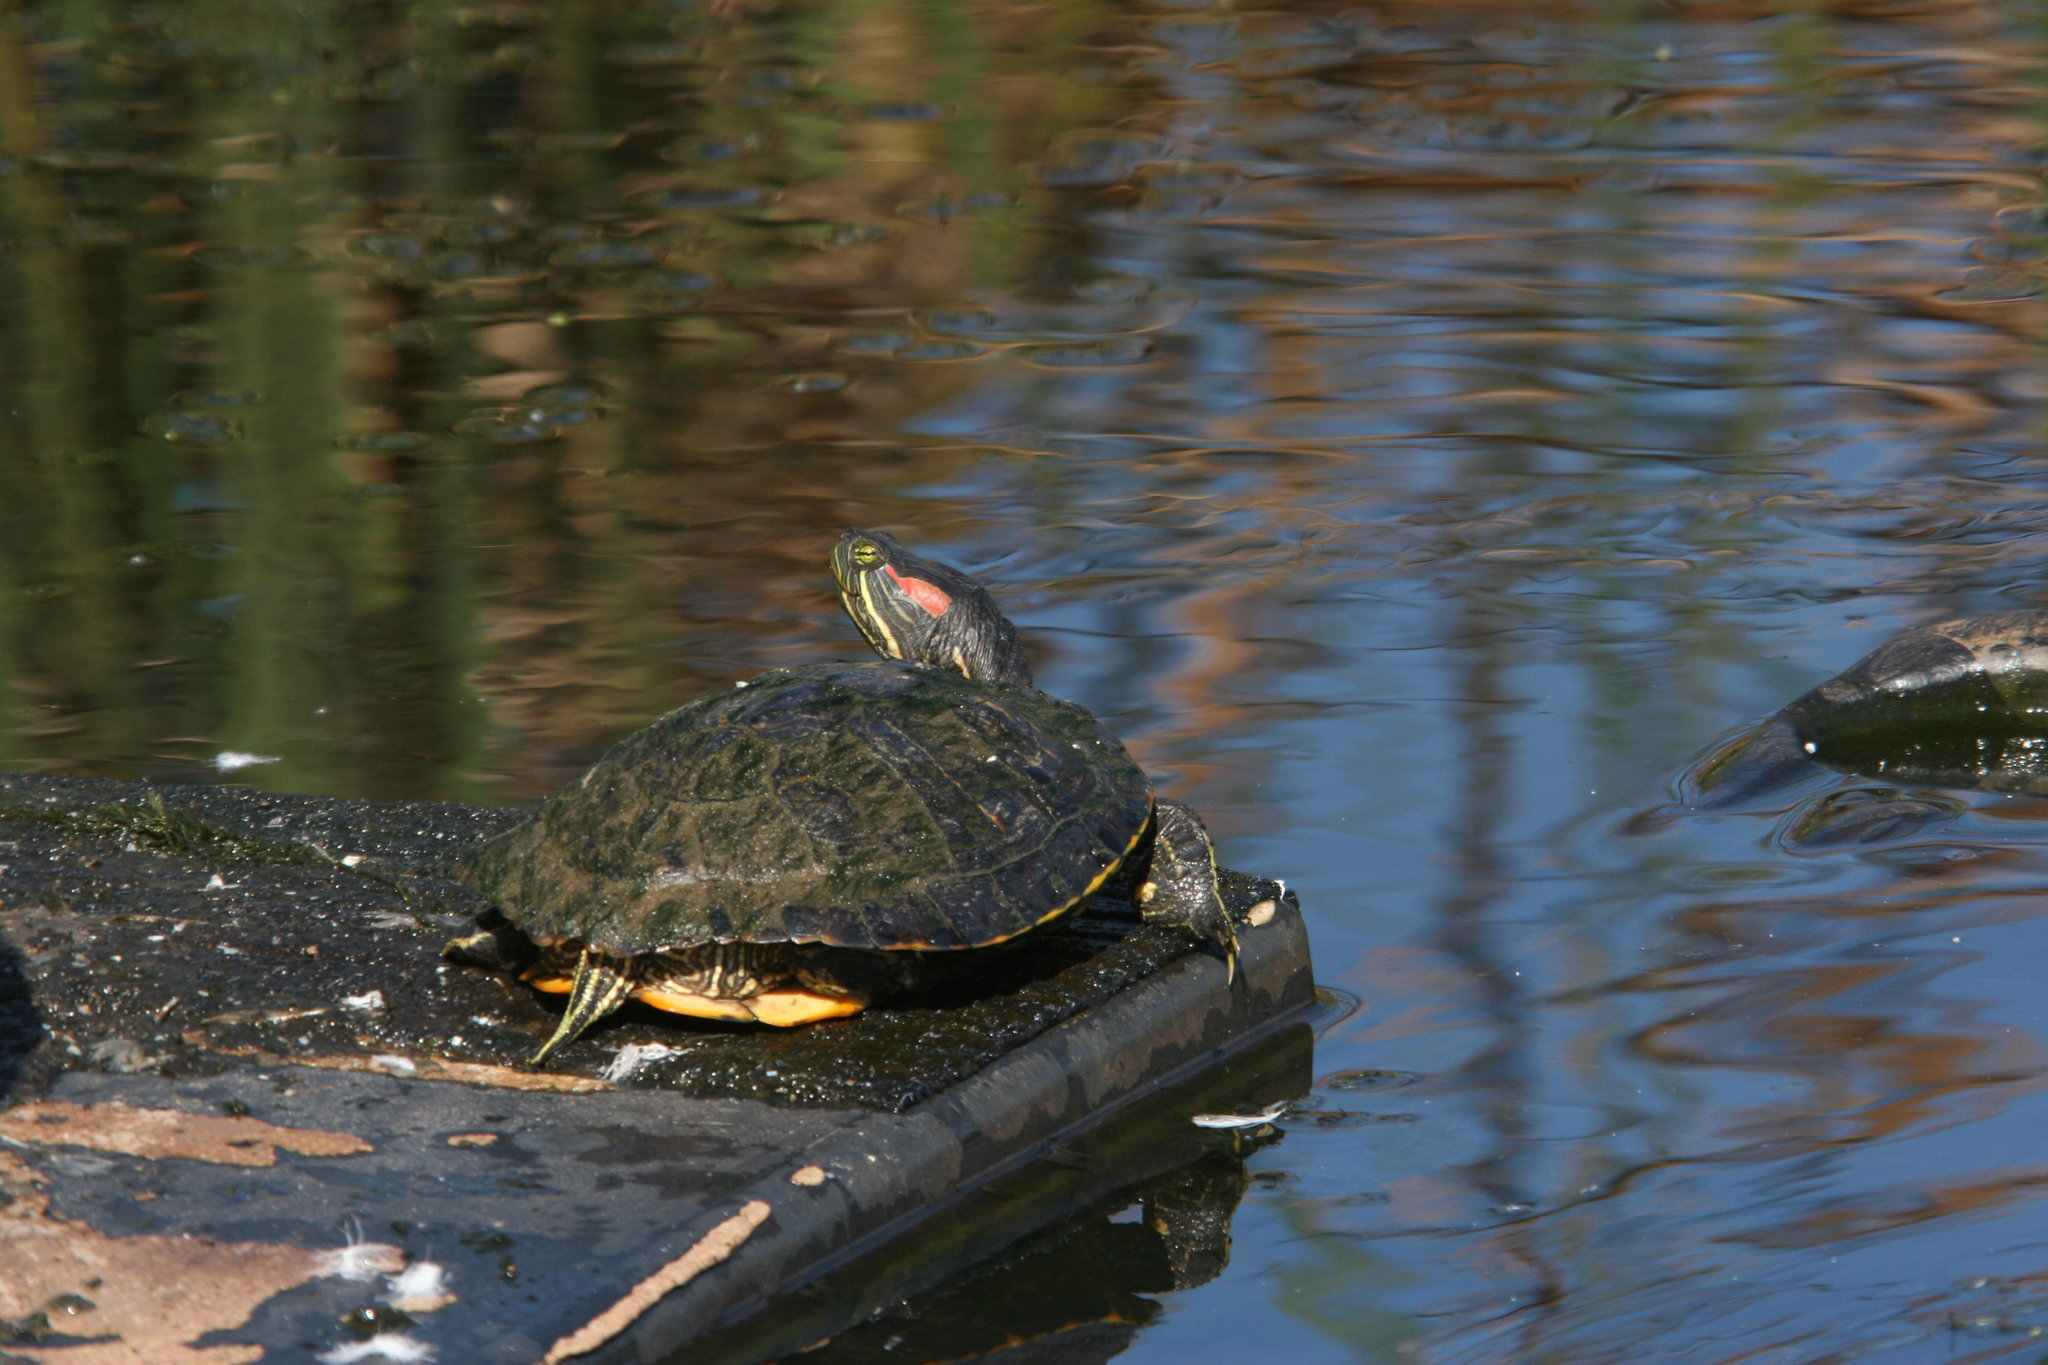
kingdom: Animalia
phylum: Chordata
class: Testudines
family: Emydidae
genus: Trachemys
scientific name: Trachemys scripta
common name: Slider
